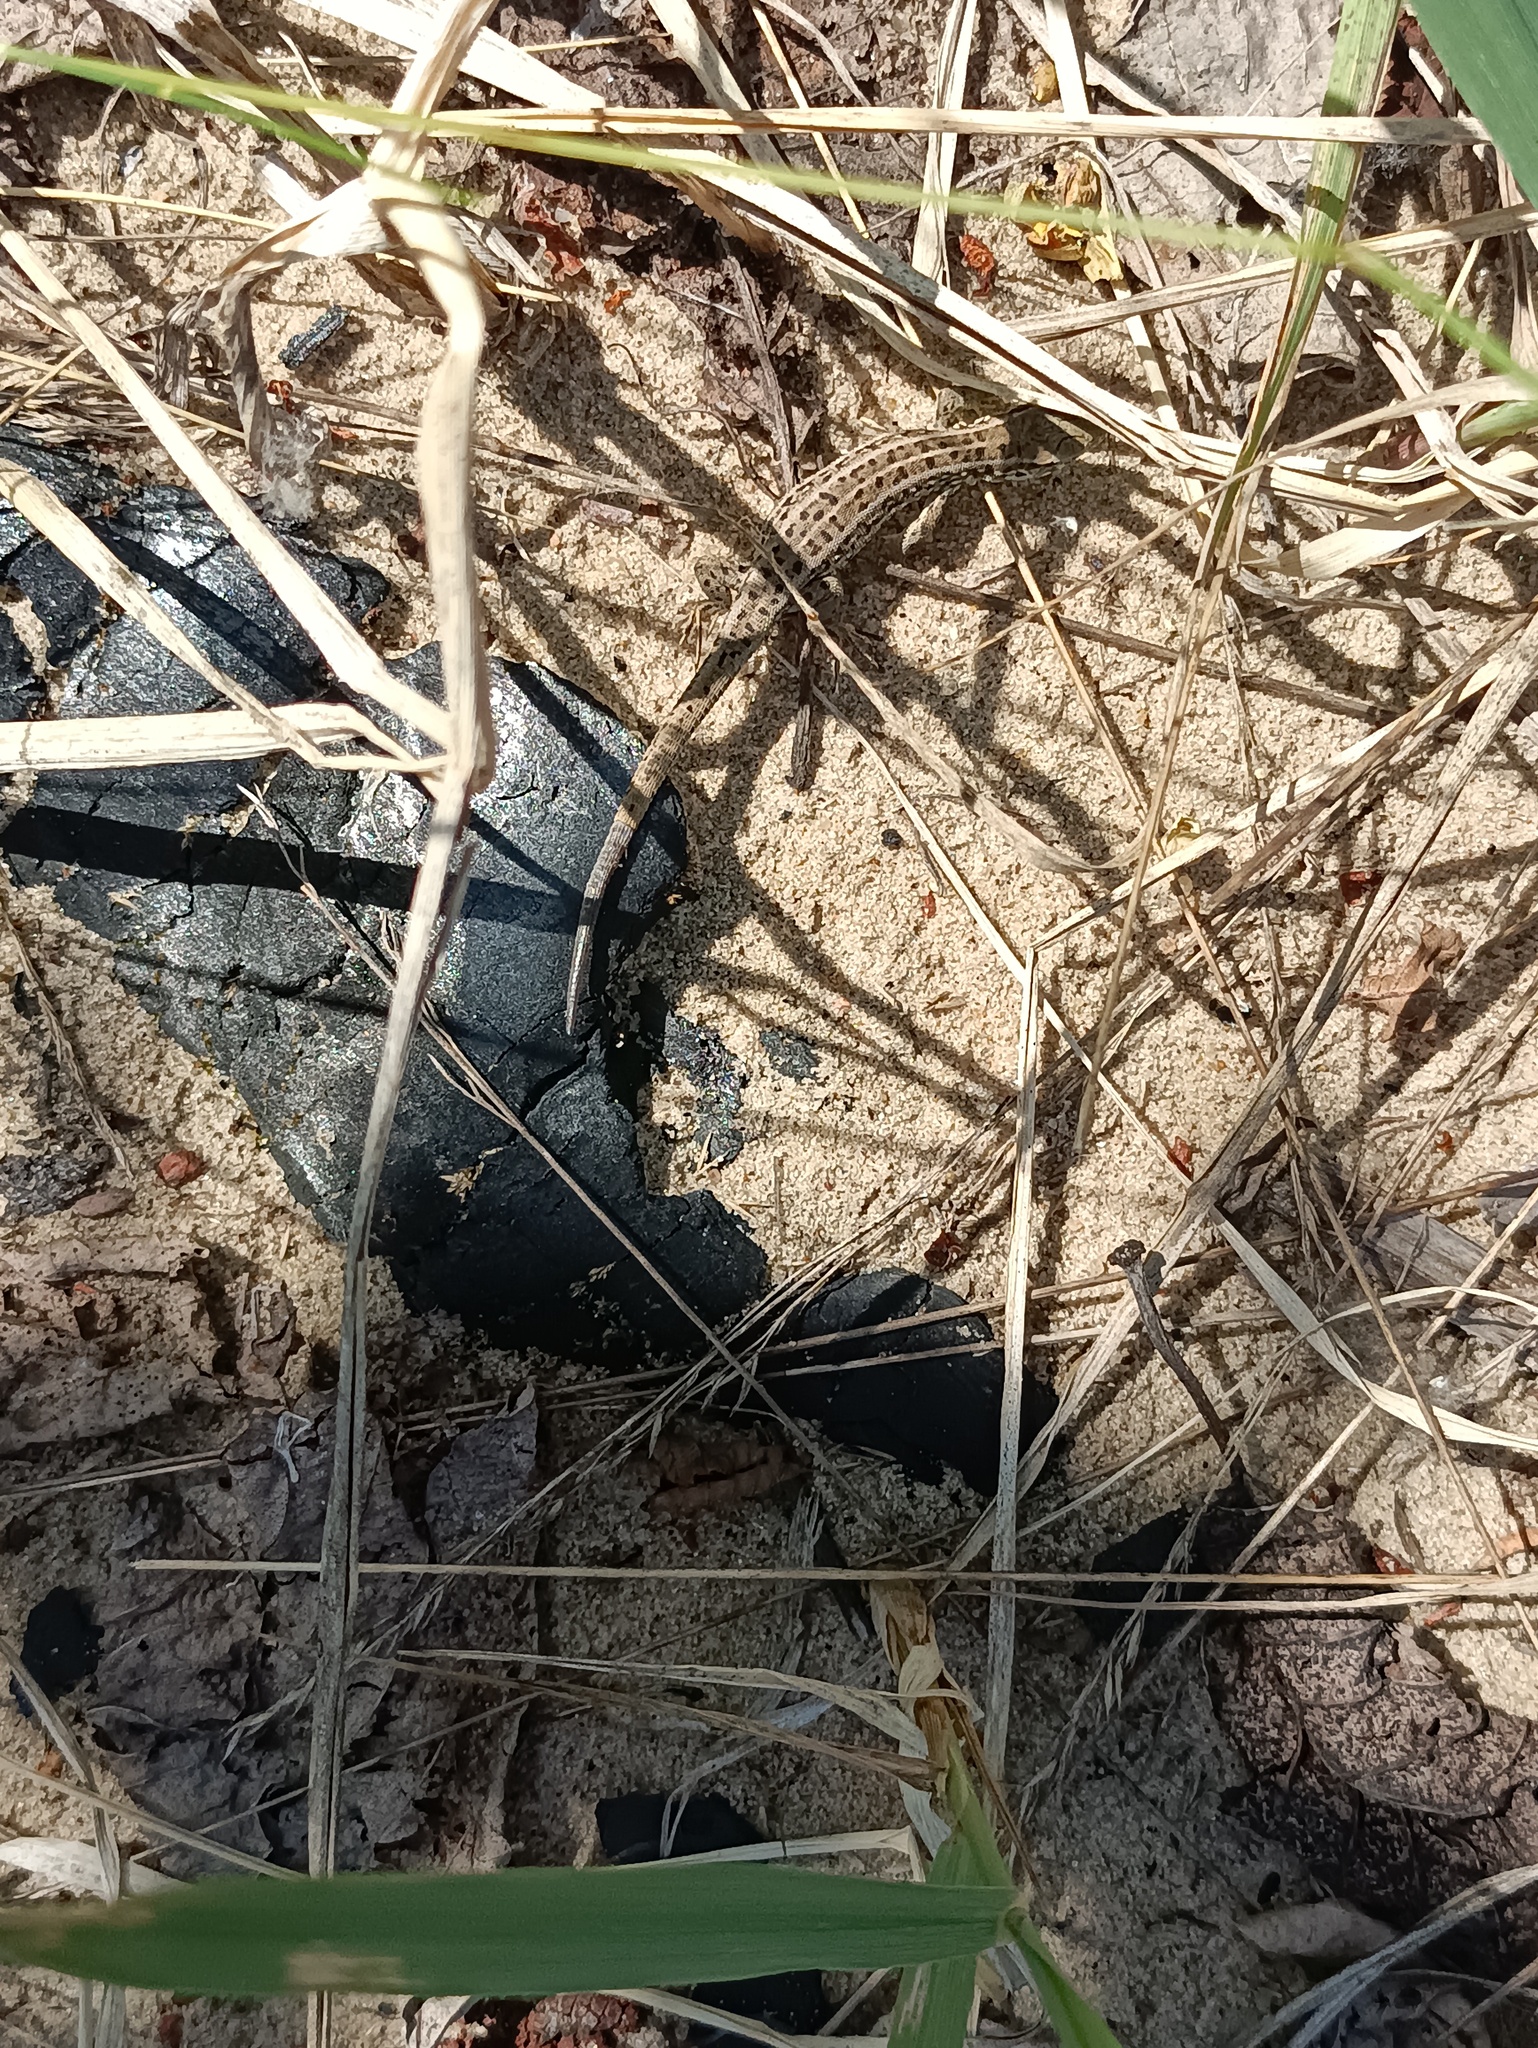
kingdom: Animalia
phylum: Chordata
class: Squamata
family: Lacertidae
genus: Lacerta
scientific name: Lacerta agilis
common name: Sand lizard
